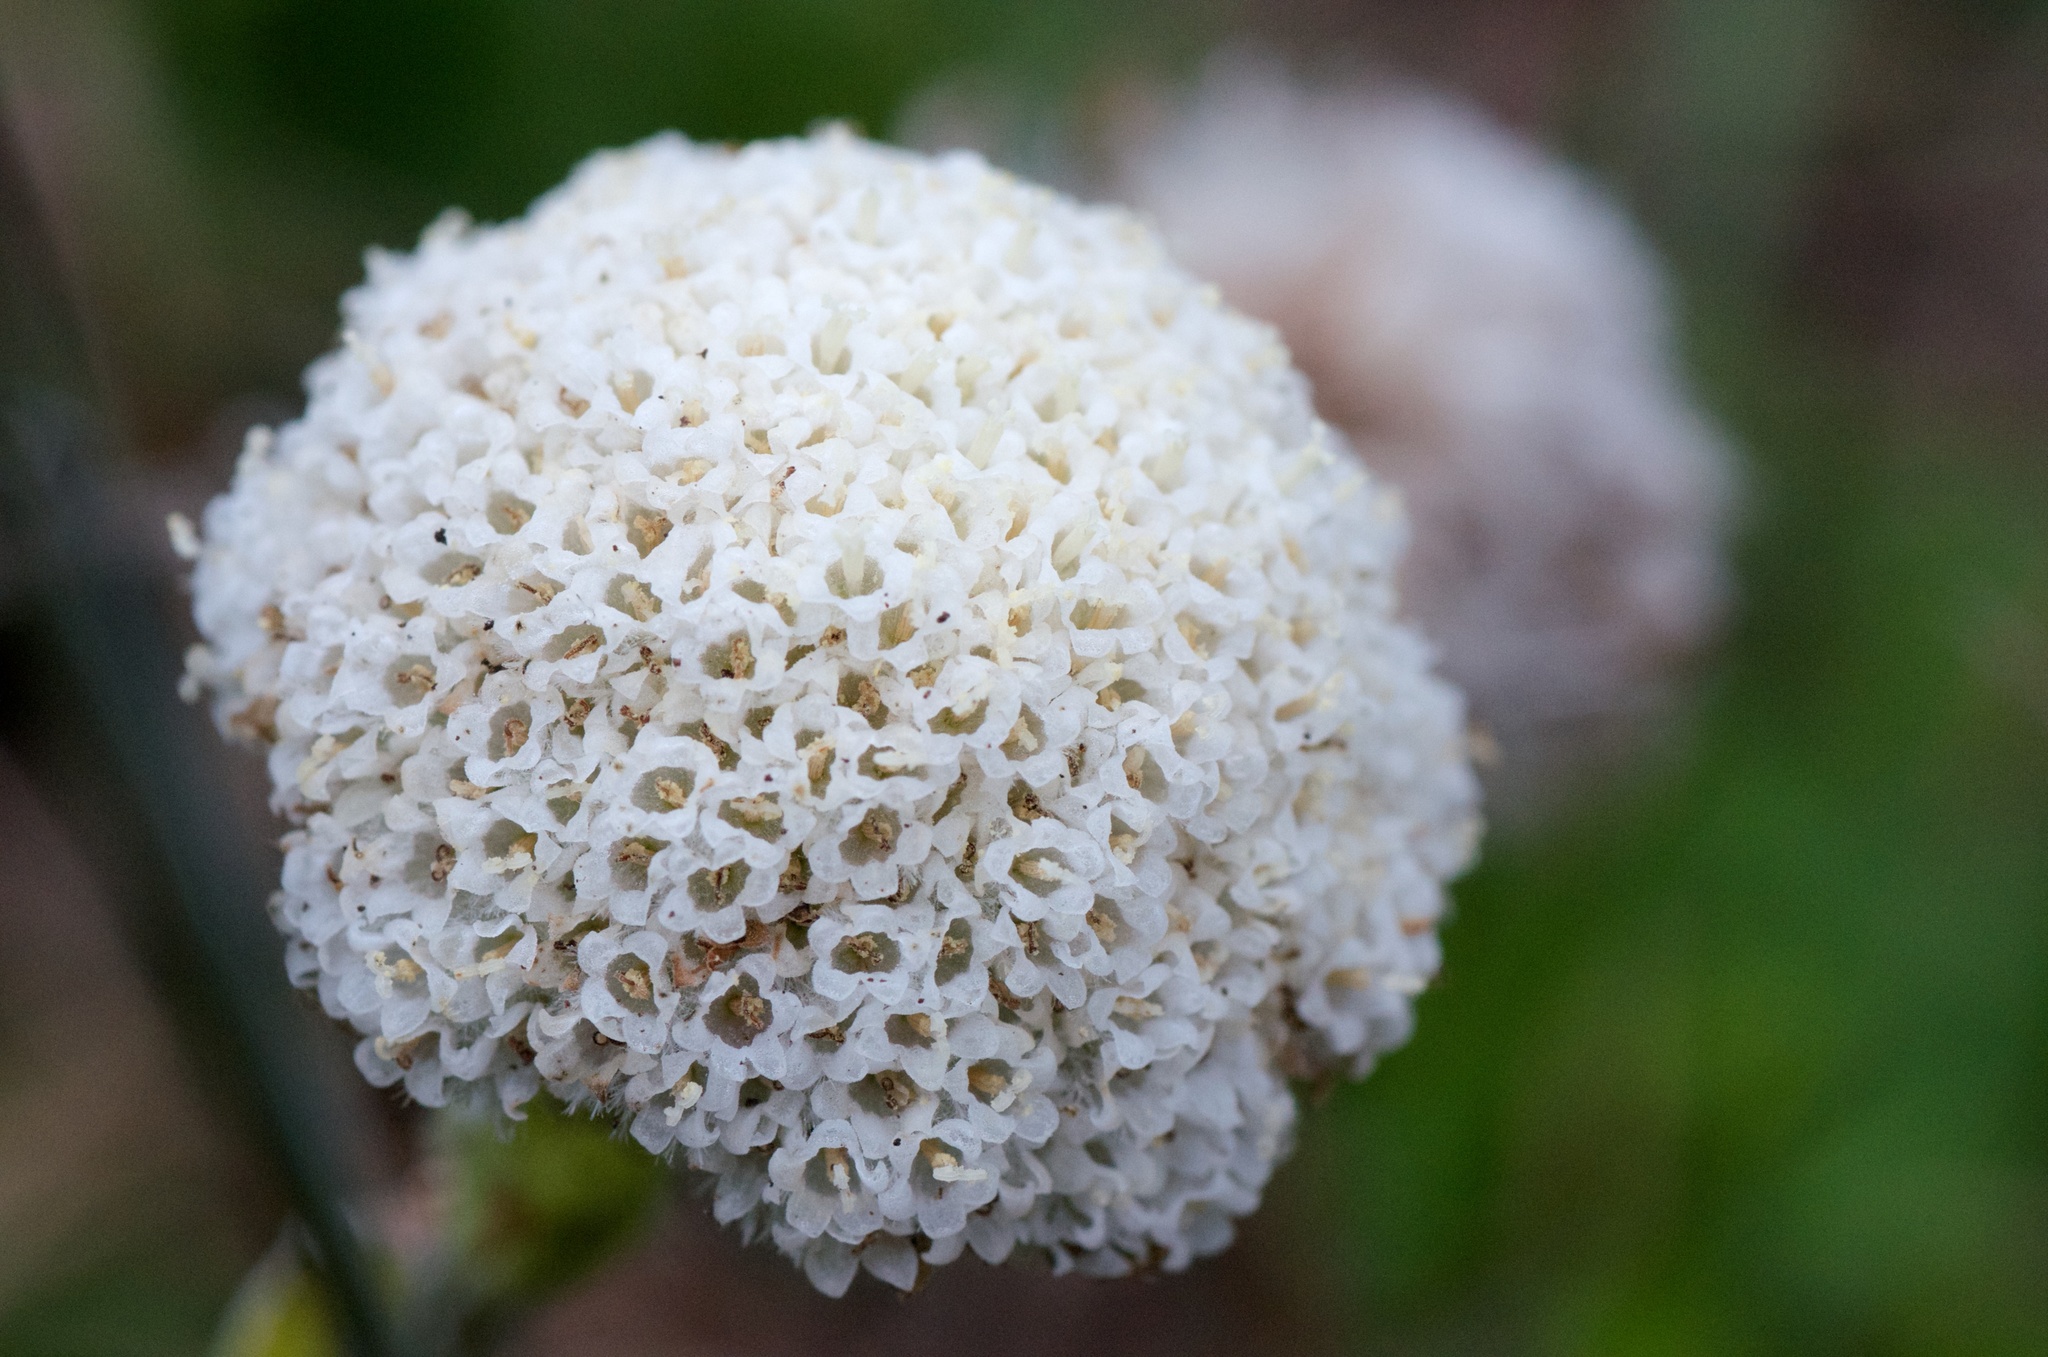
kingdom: Plantae
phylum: Tracheophyta
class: Magnoliopsida
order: Asterales
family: Asteraceae
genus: Craspedia
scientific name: Craspedia uniflora
